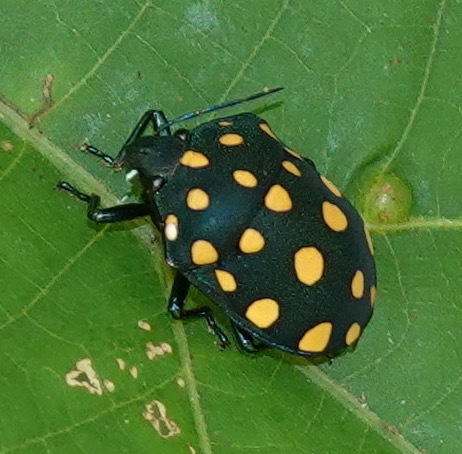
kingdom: Animalia
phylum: Arthropoda
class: Insecta
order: Hemiptera
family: Scutelleridae
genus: Pachycoris
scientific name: Pachycoris torridus
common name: Torrid jewel bug
